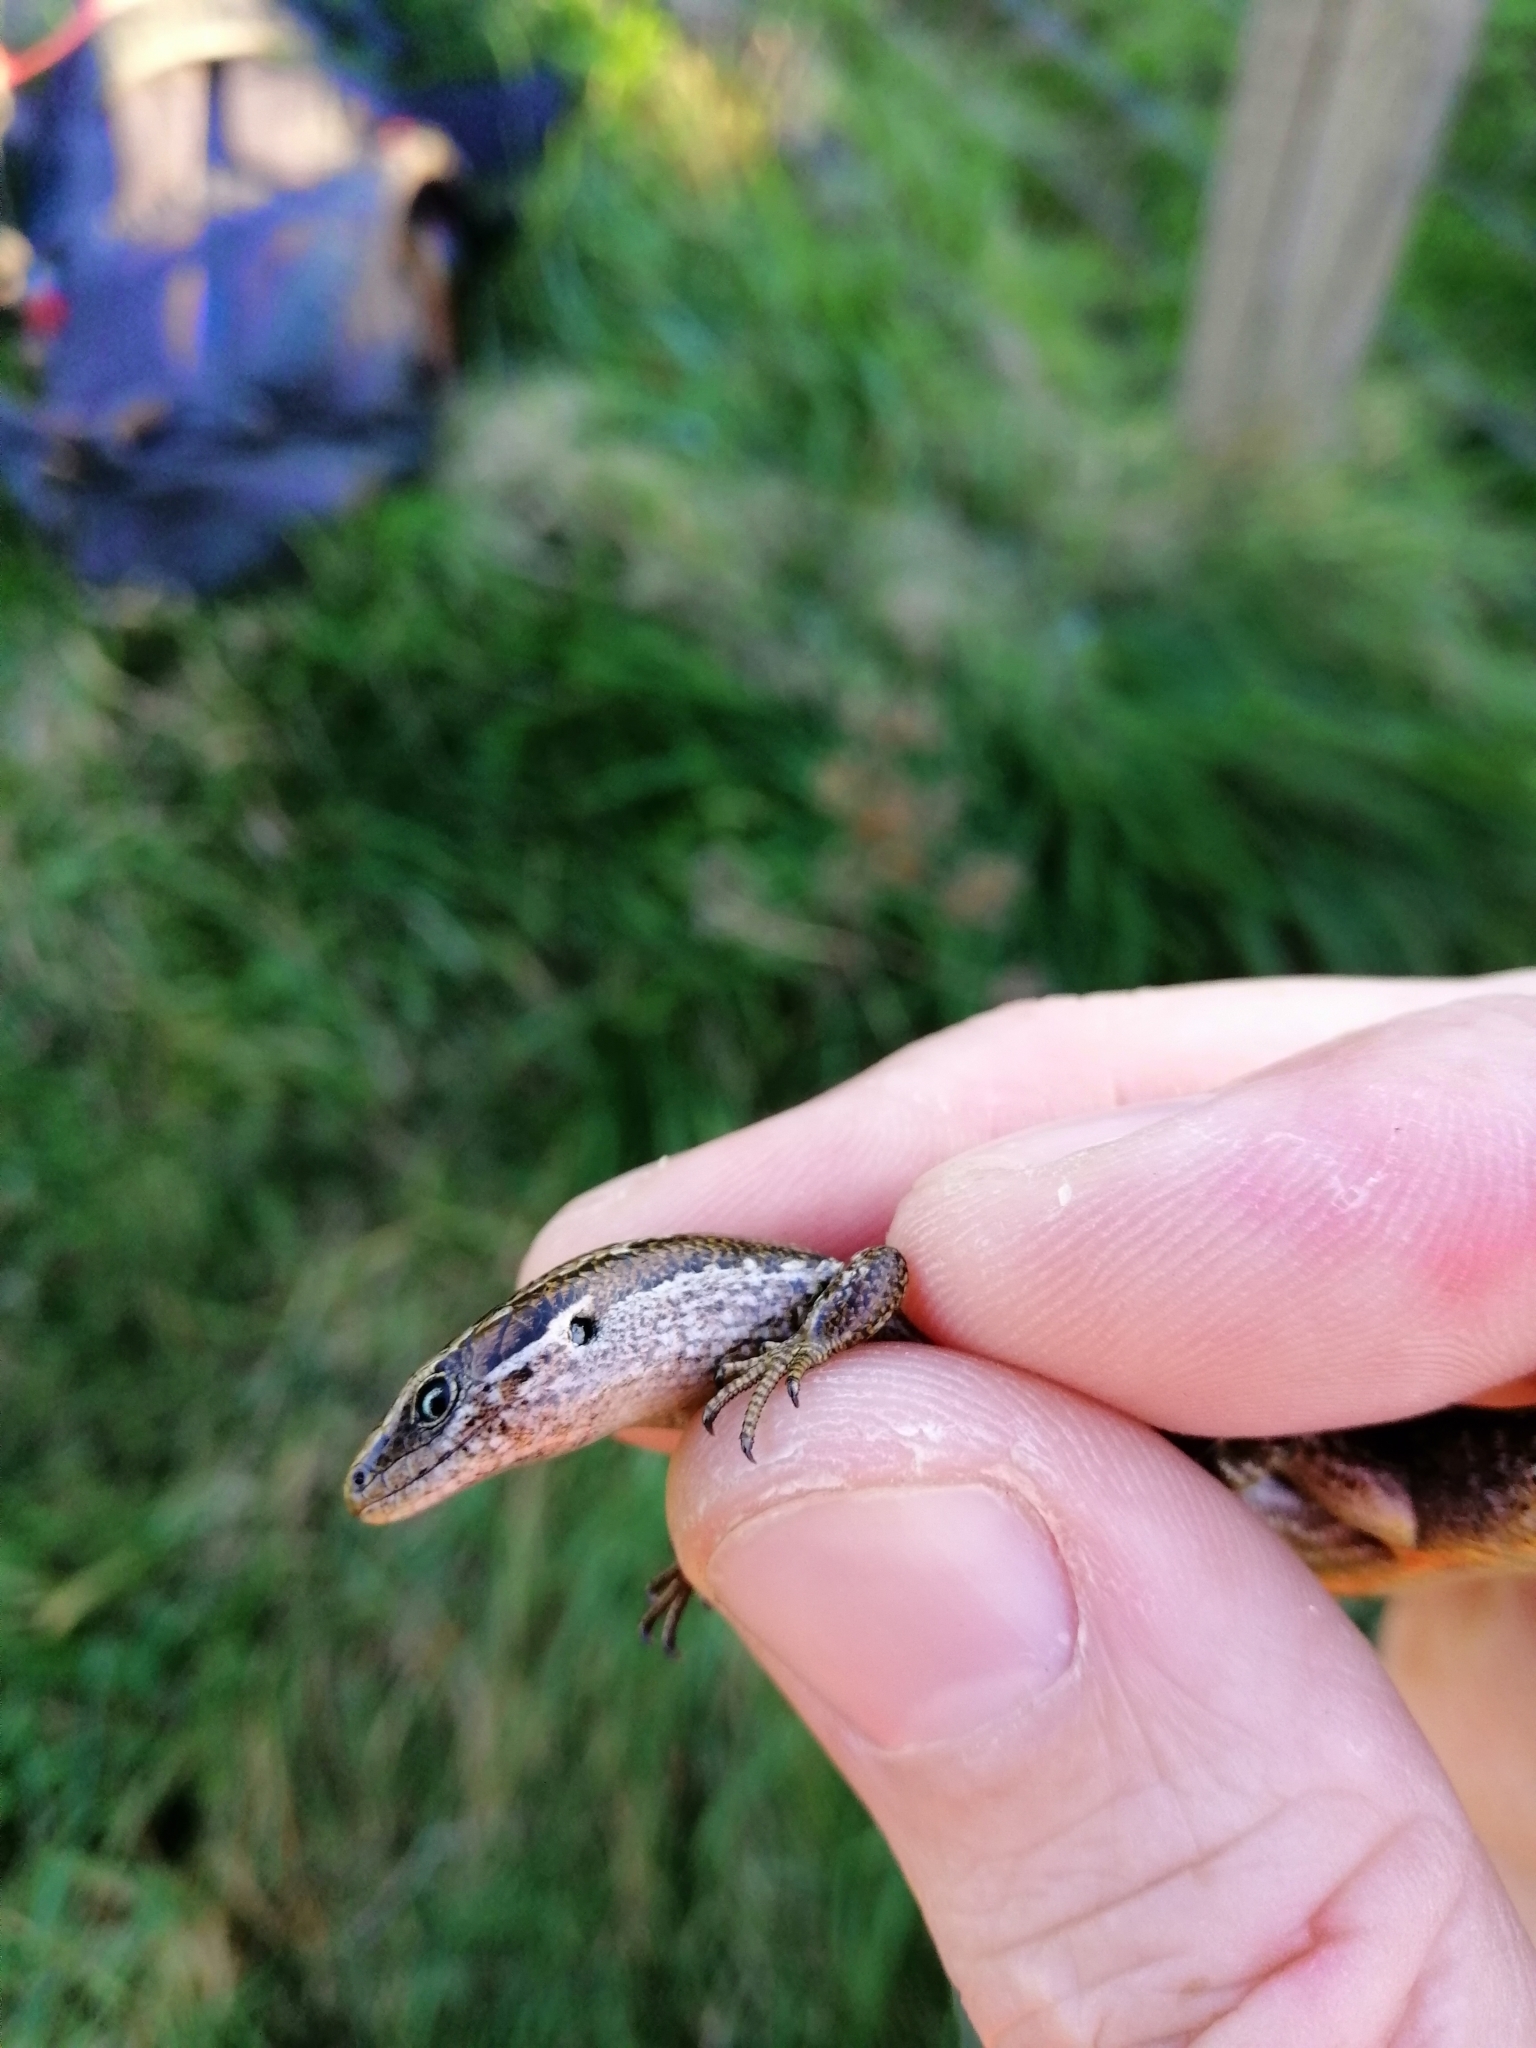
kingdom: Animalia
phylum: Chordata
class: Squamata
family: Scincidae
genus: Oligosoma
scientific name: Oligosoma polychroma
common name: Common new zealand skink
